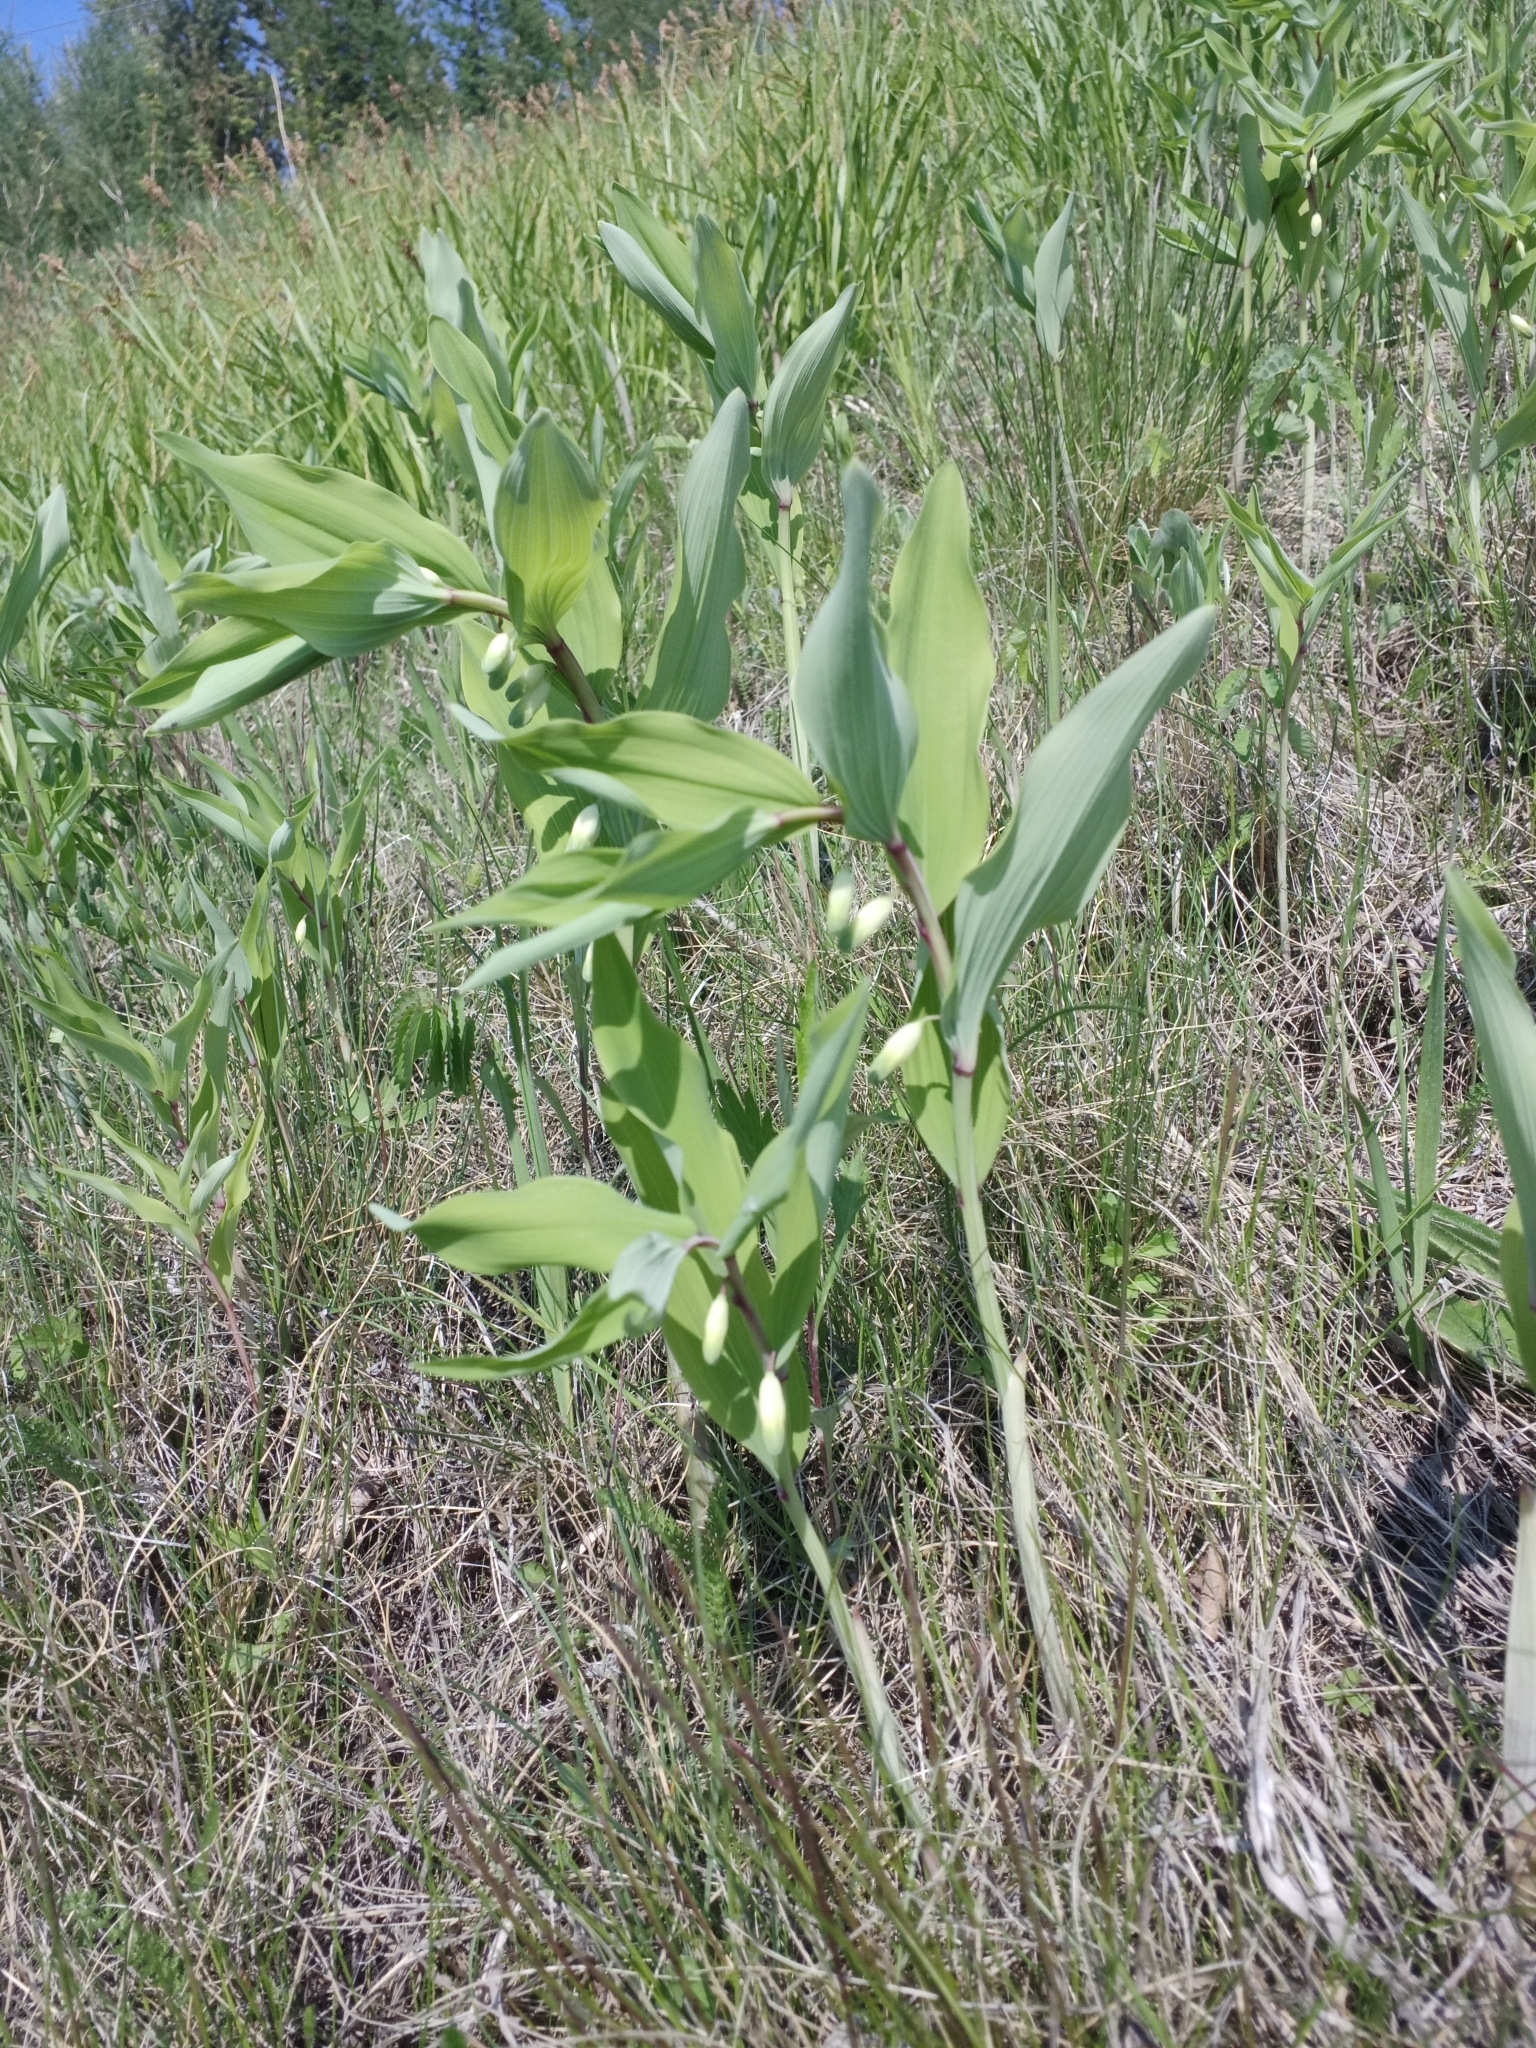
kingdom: Plantae
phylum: Tracheophyta
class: Liliopsida
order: Asparagales
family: Asparagaceae
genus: Polygonatum
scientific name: Polygonatum odoratum
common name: Angular solomon's-seal
